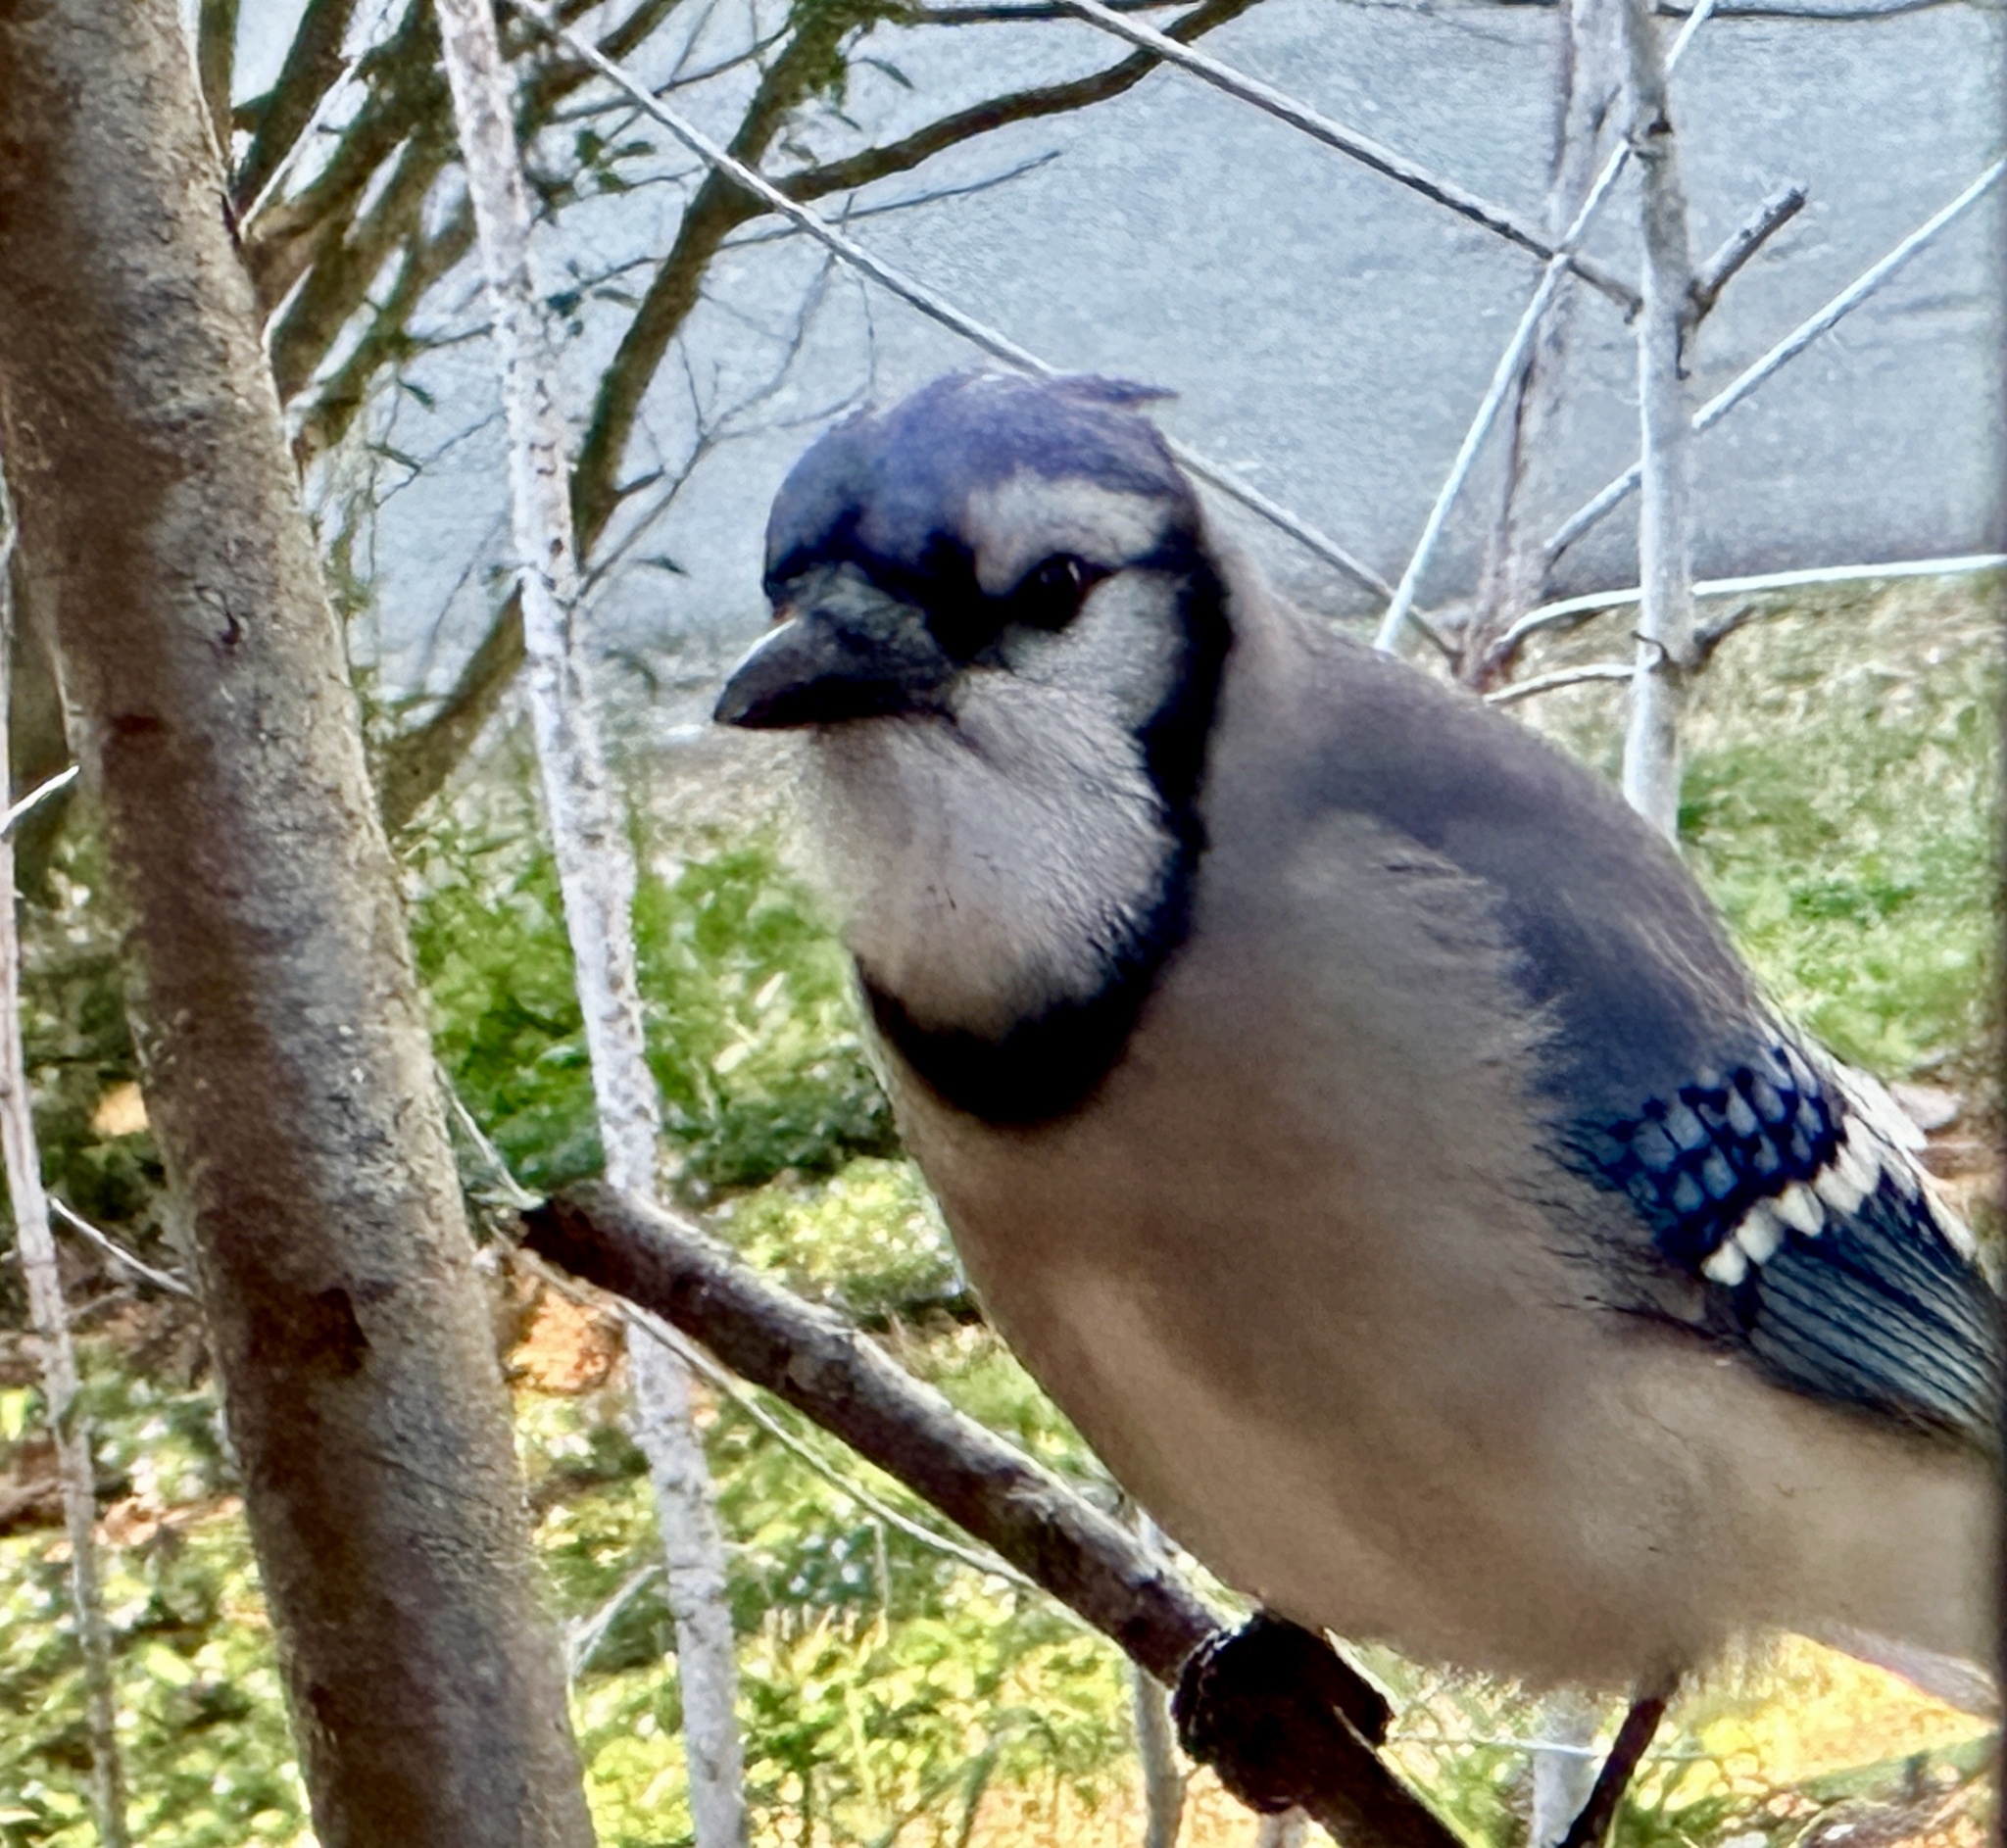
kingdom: Animalia
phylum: Chordata
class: Aves
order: Passeriformes
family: Corvidae
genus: Cyanocitta
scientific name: Cyanocitta cristata
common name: Blue jay
